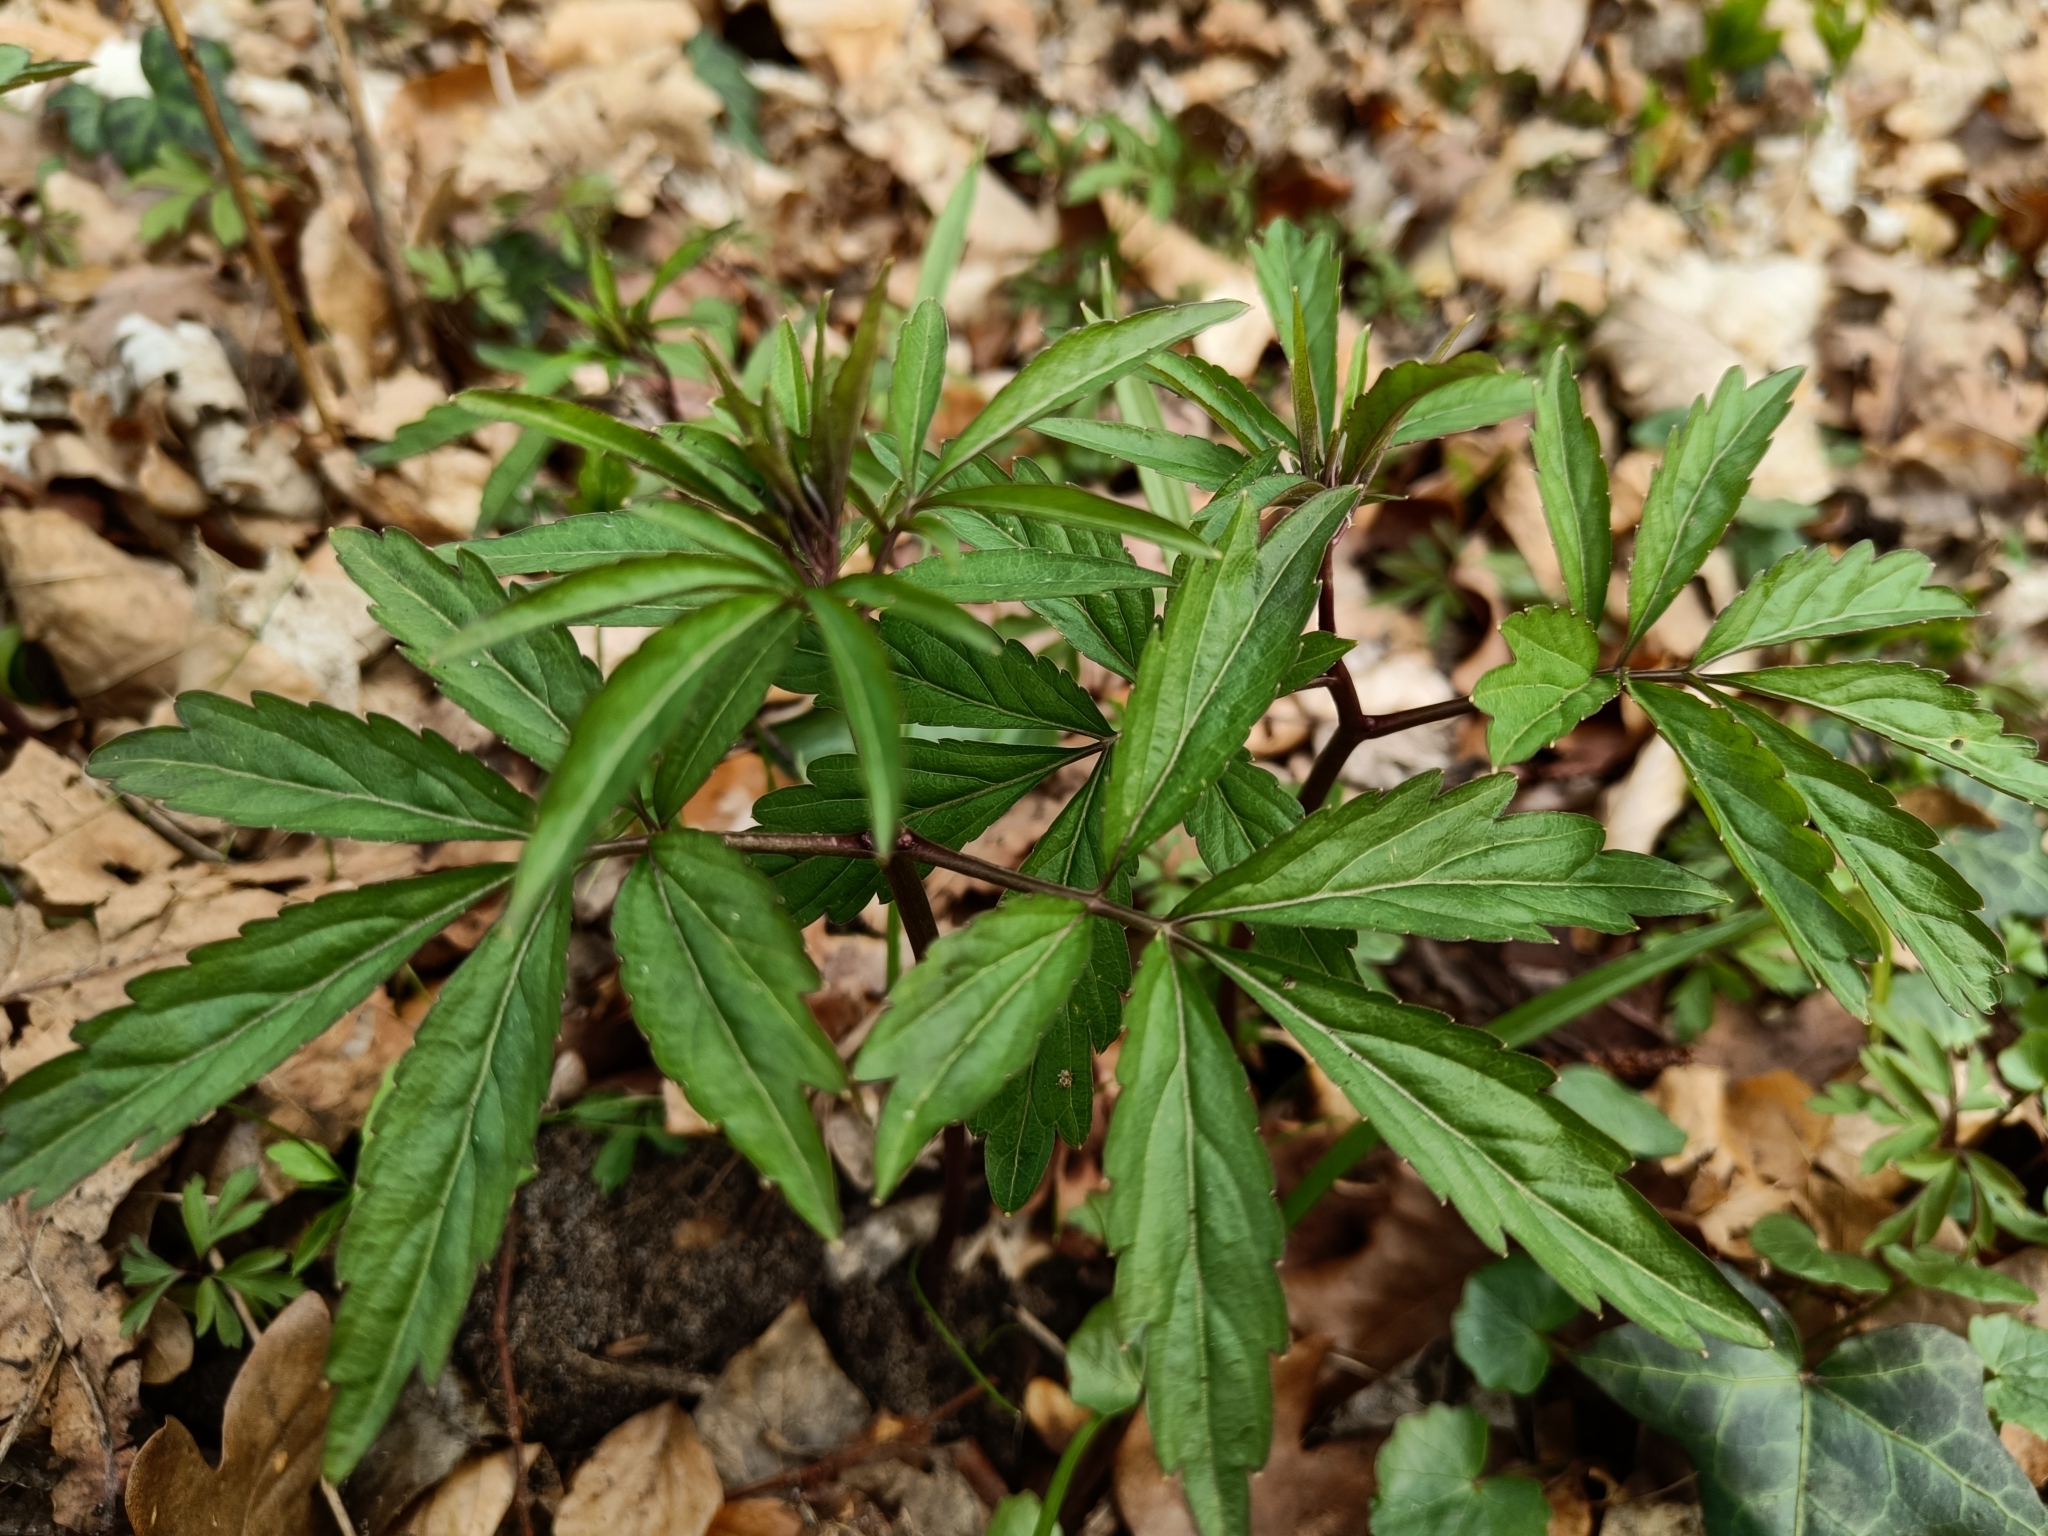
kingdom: Plantae
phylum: Tracheophyta
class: Magnoliopsida
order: Brassicales
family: Brassicaceae
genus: Cardamine
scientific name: Cardamine bulbifera
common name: Coralroot bittercress
